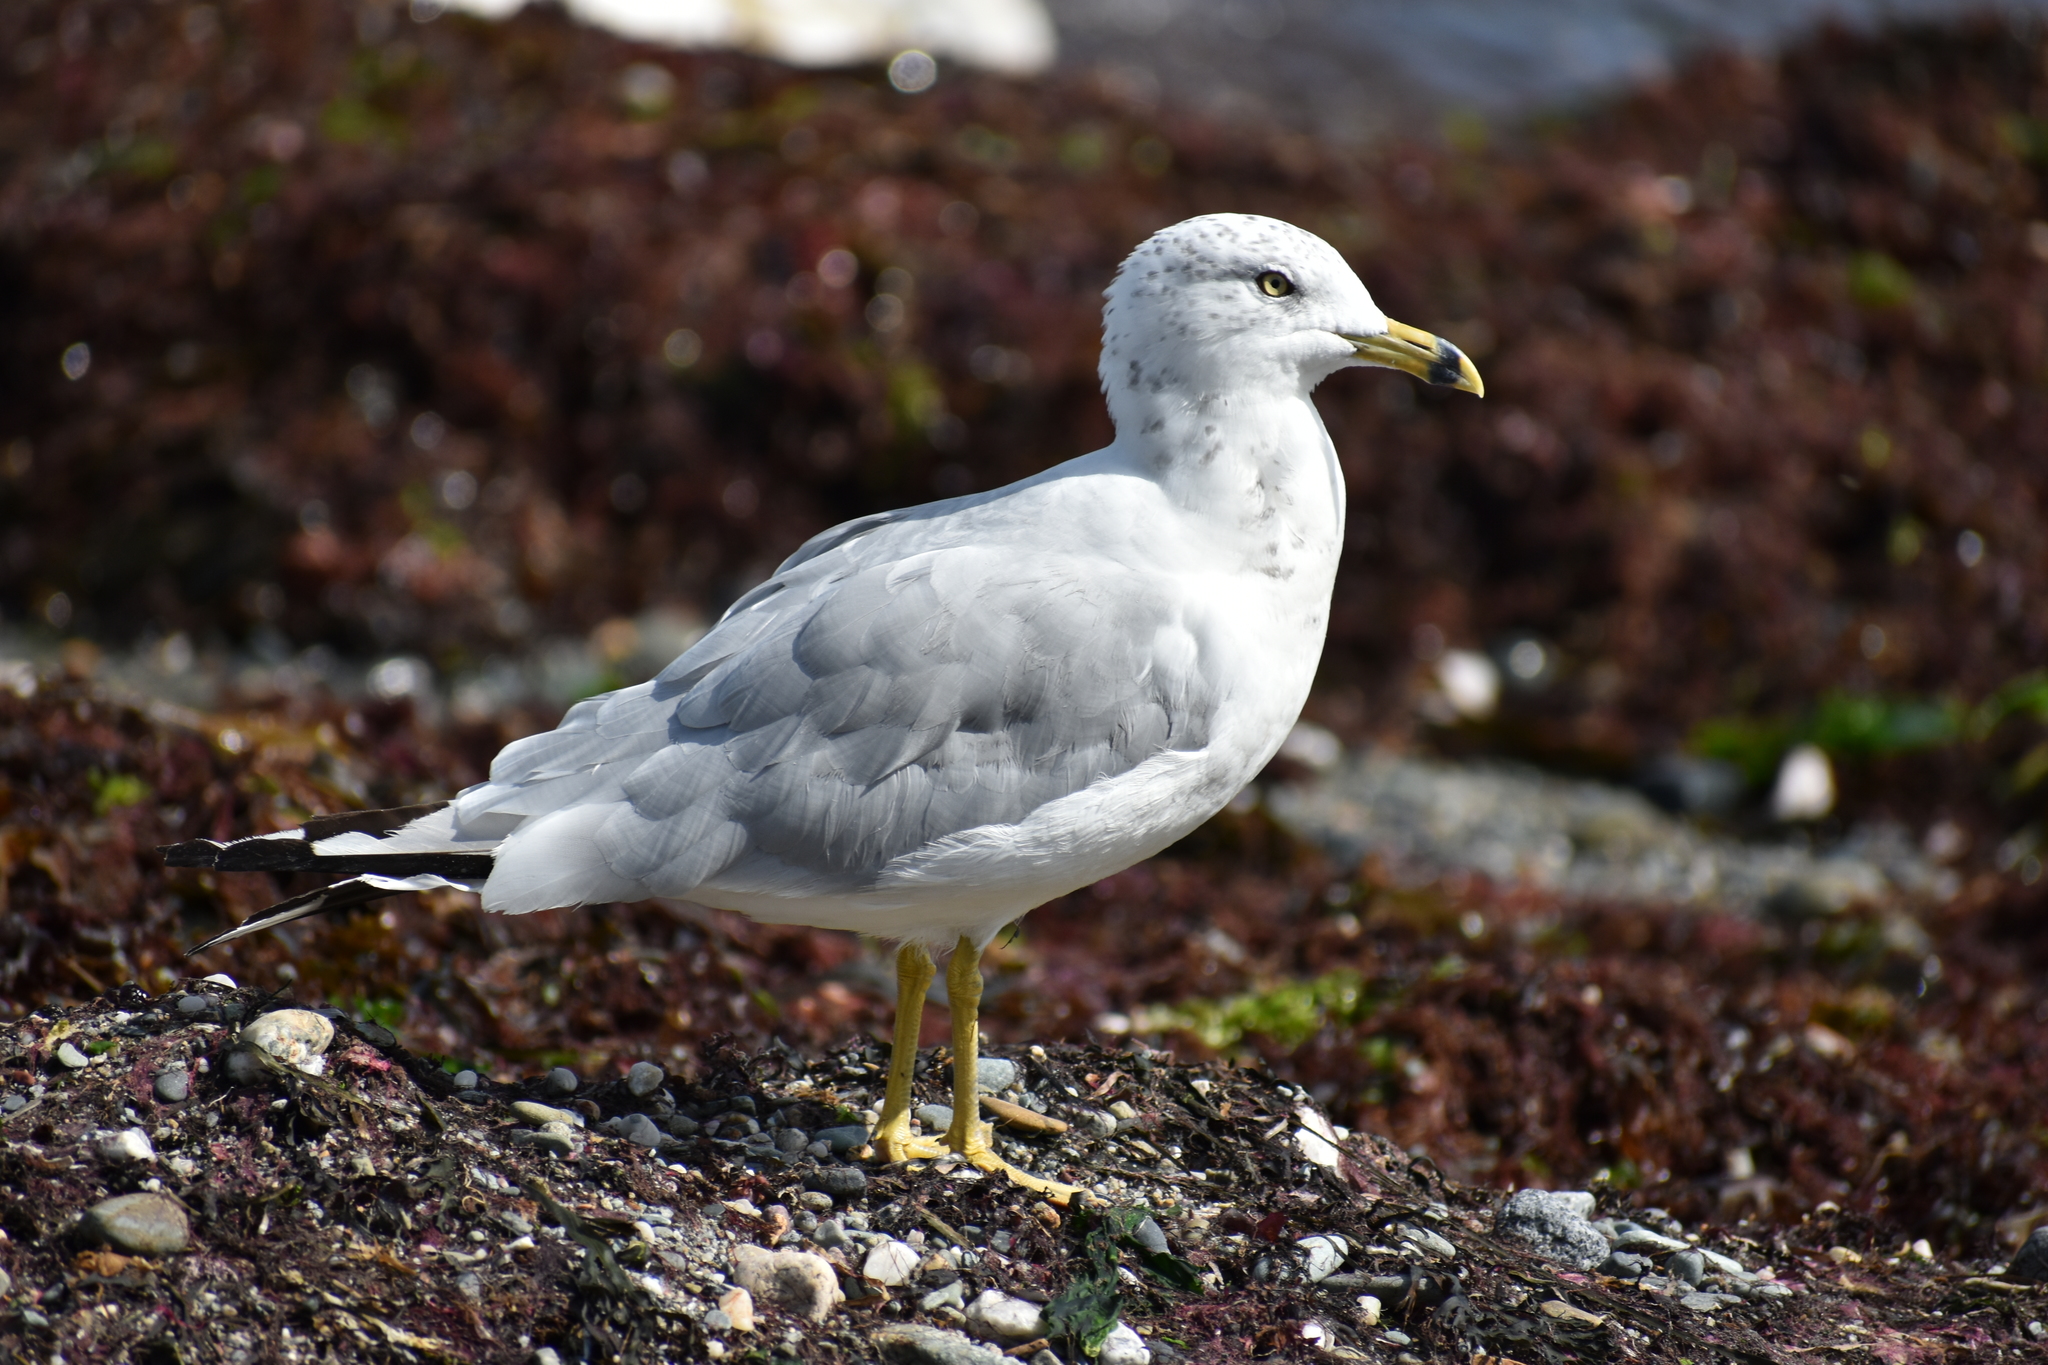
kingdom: Animalia
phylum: Chordata
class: Aves
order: Charadriiformes
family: Laridae
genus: Larus
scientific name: Larus delawarensis
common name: Ring-billed gull
